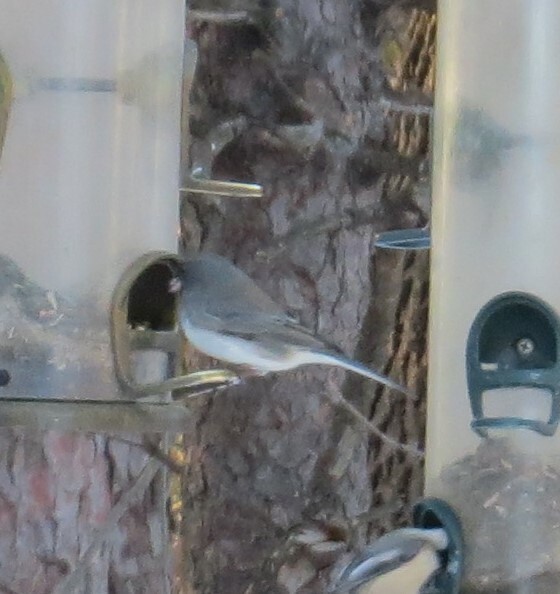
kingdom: Animalia
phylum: Chordata
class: Aves
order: Passeriformes
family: Passerellidae
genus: Junco
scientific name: Junco hyemalis
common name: Dark-eyed junco
